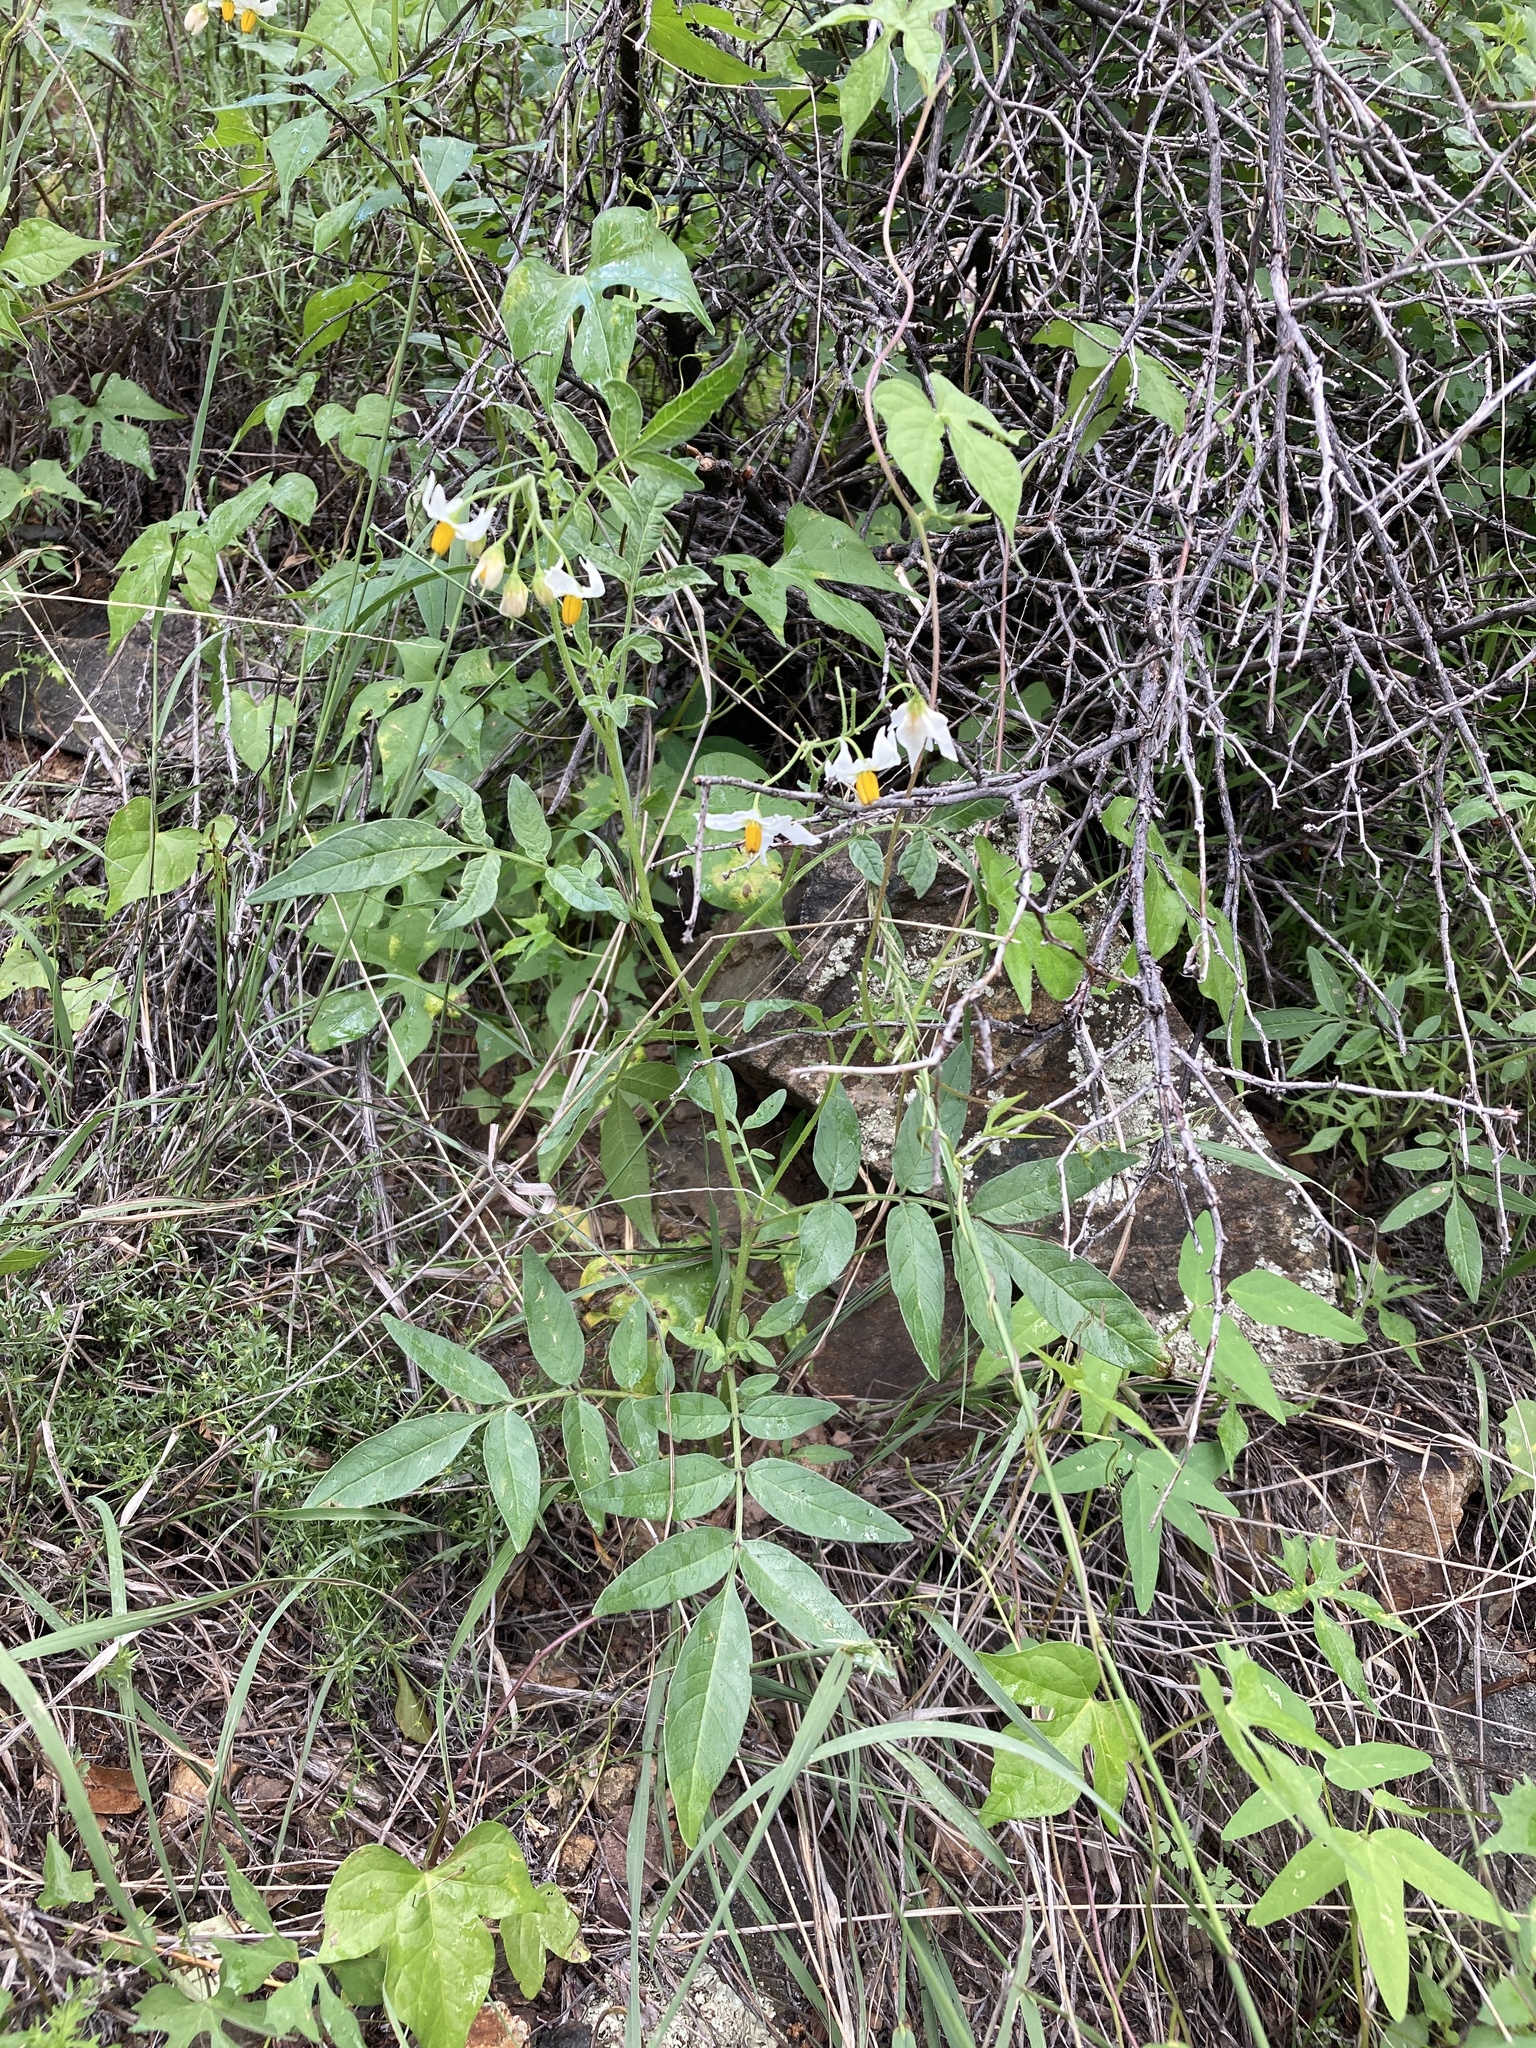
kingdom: Plantae
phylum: Tracheophyta
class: Magnoliopsida
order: Solanales
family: Solanaceae
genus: Solanum
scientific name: Solanum jamesii
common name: Wild potato
